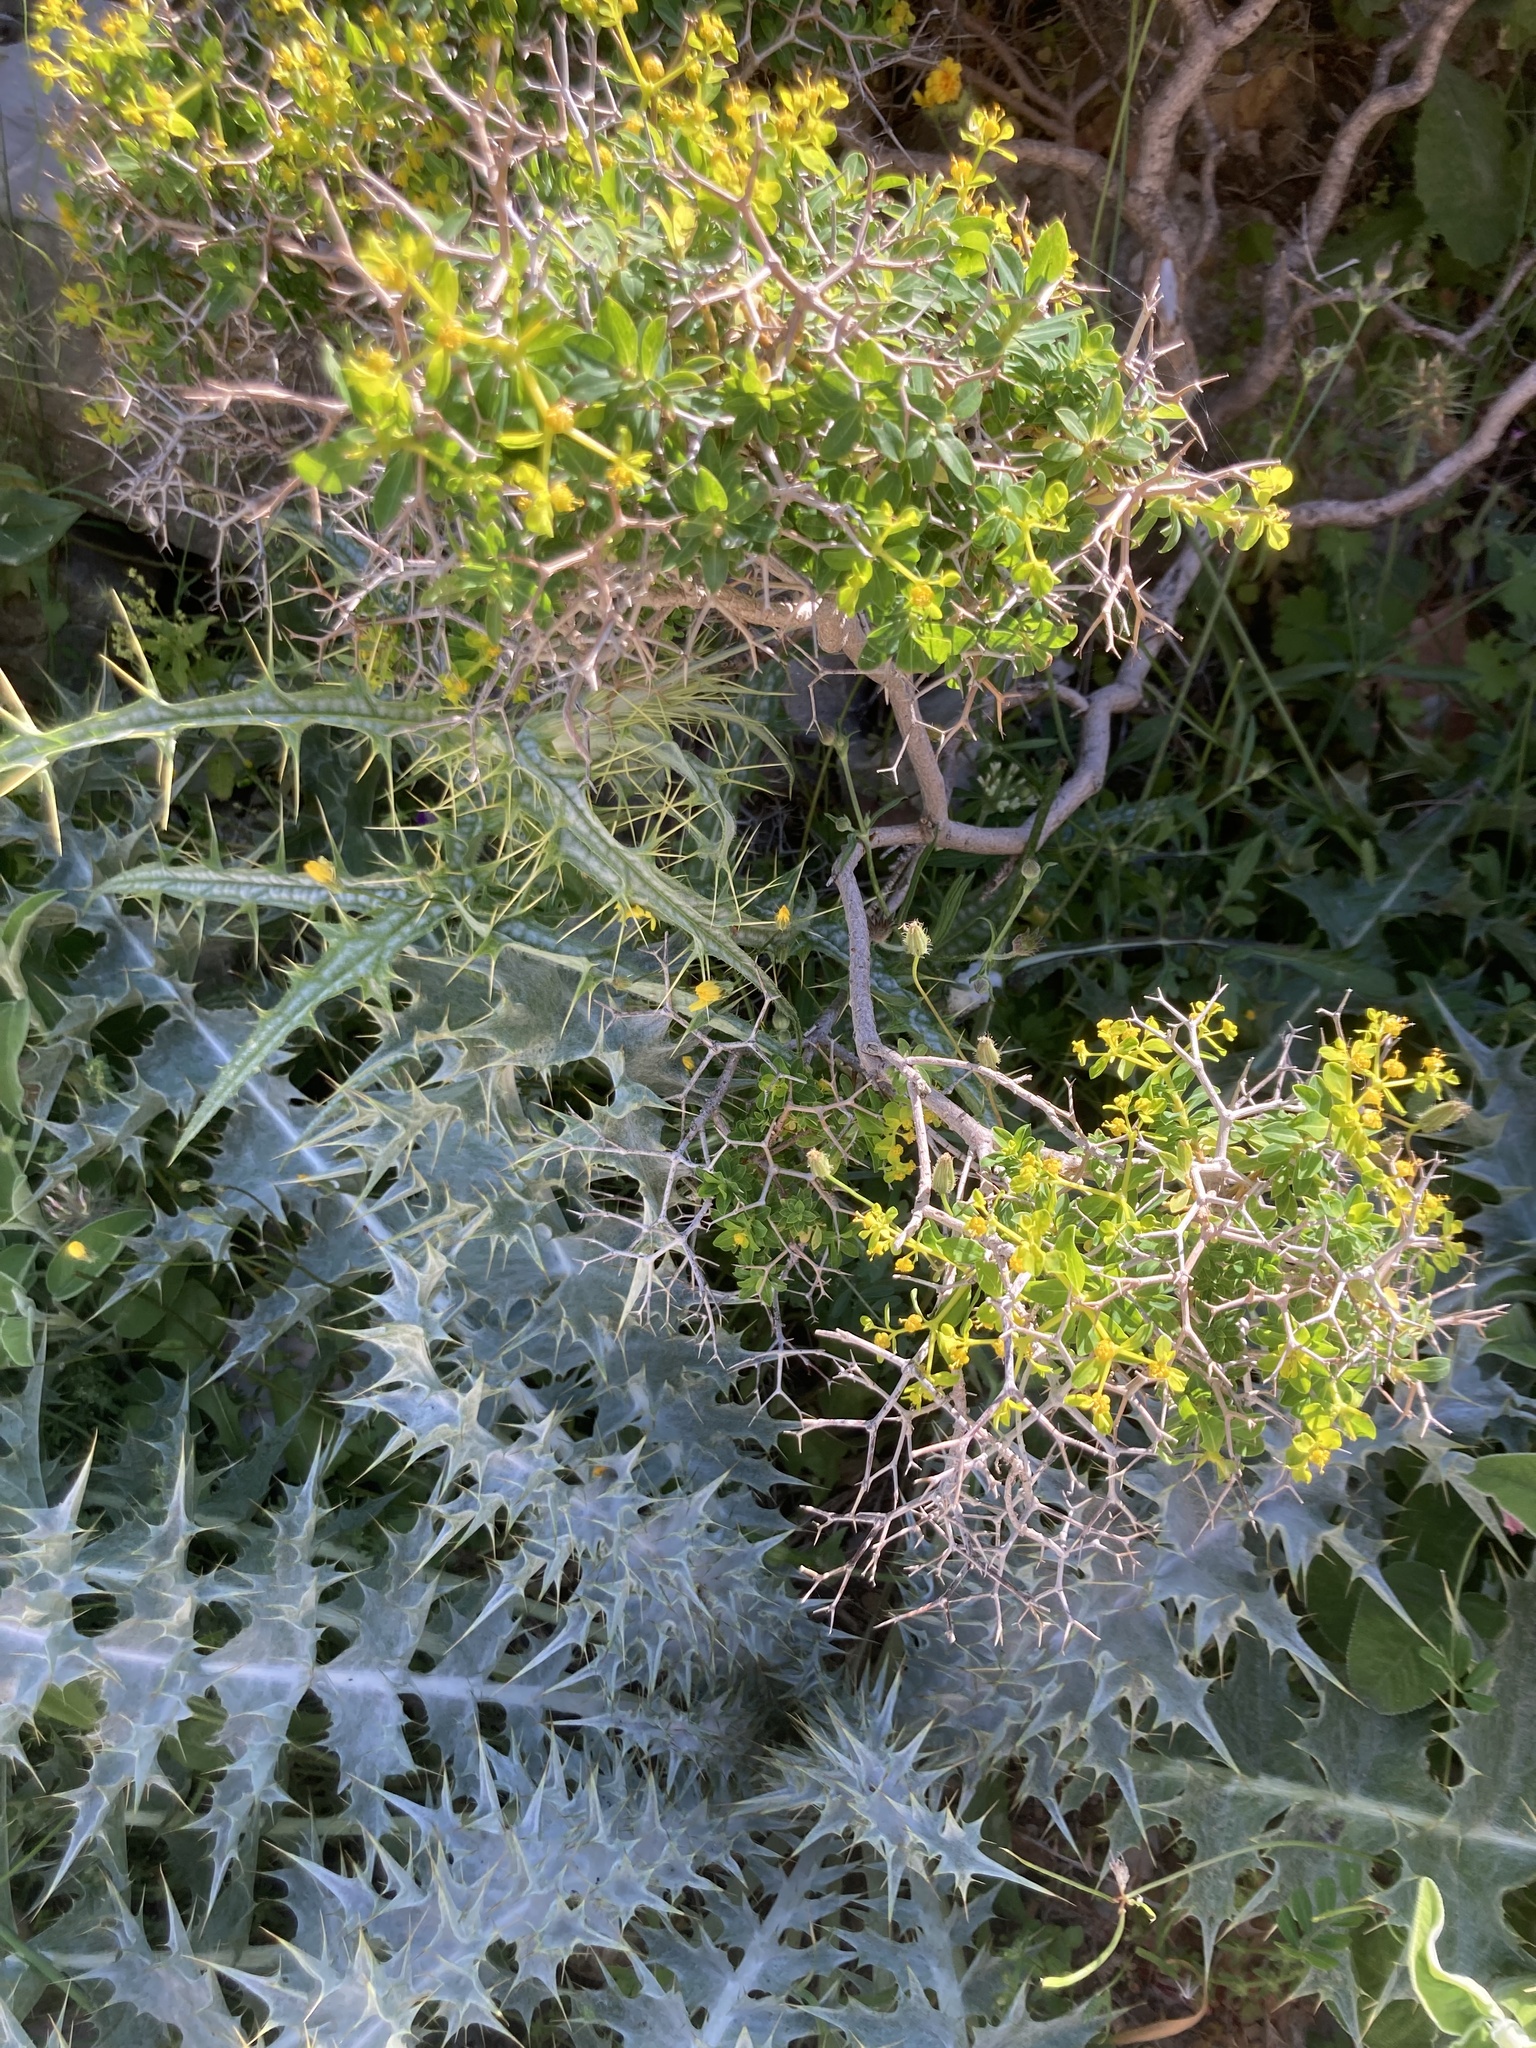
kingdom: Plantae
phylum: Tracheophyta
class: Magnoliopsida
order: Malpighiales
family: Euphorbiaceae
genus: Euphorbia
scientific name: Euphorbia acanthothamnos
